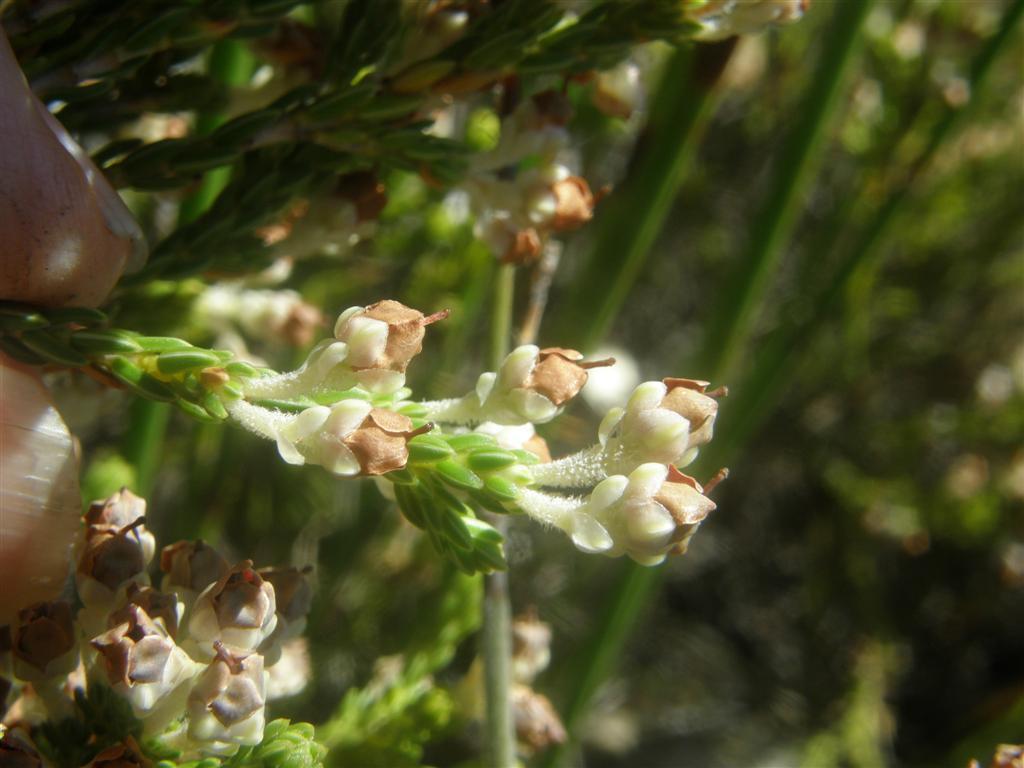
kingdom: Plantae
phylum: Tracheophyta
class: Magnoliopsida
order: Ericales
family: Ericaceae
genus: Erica
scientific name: Erica calycina
